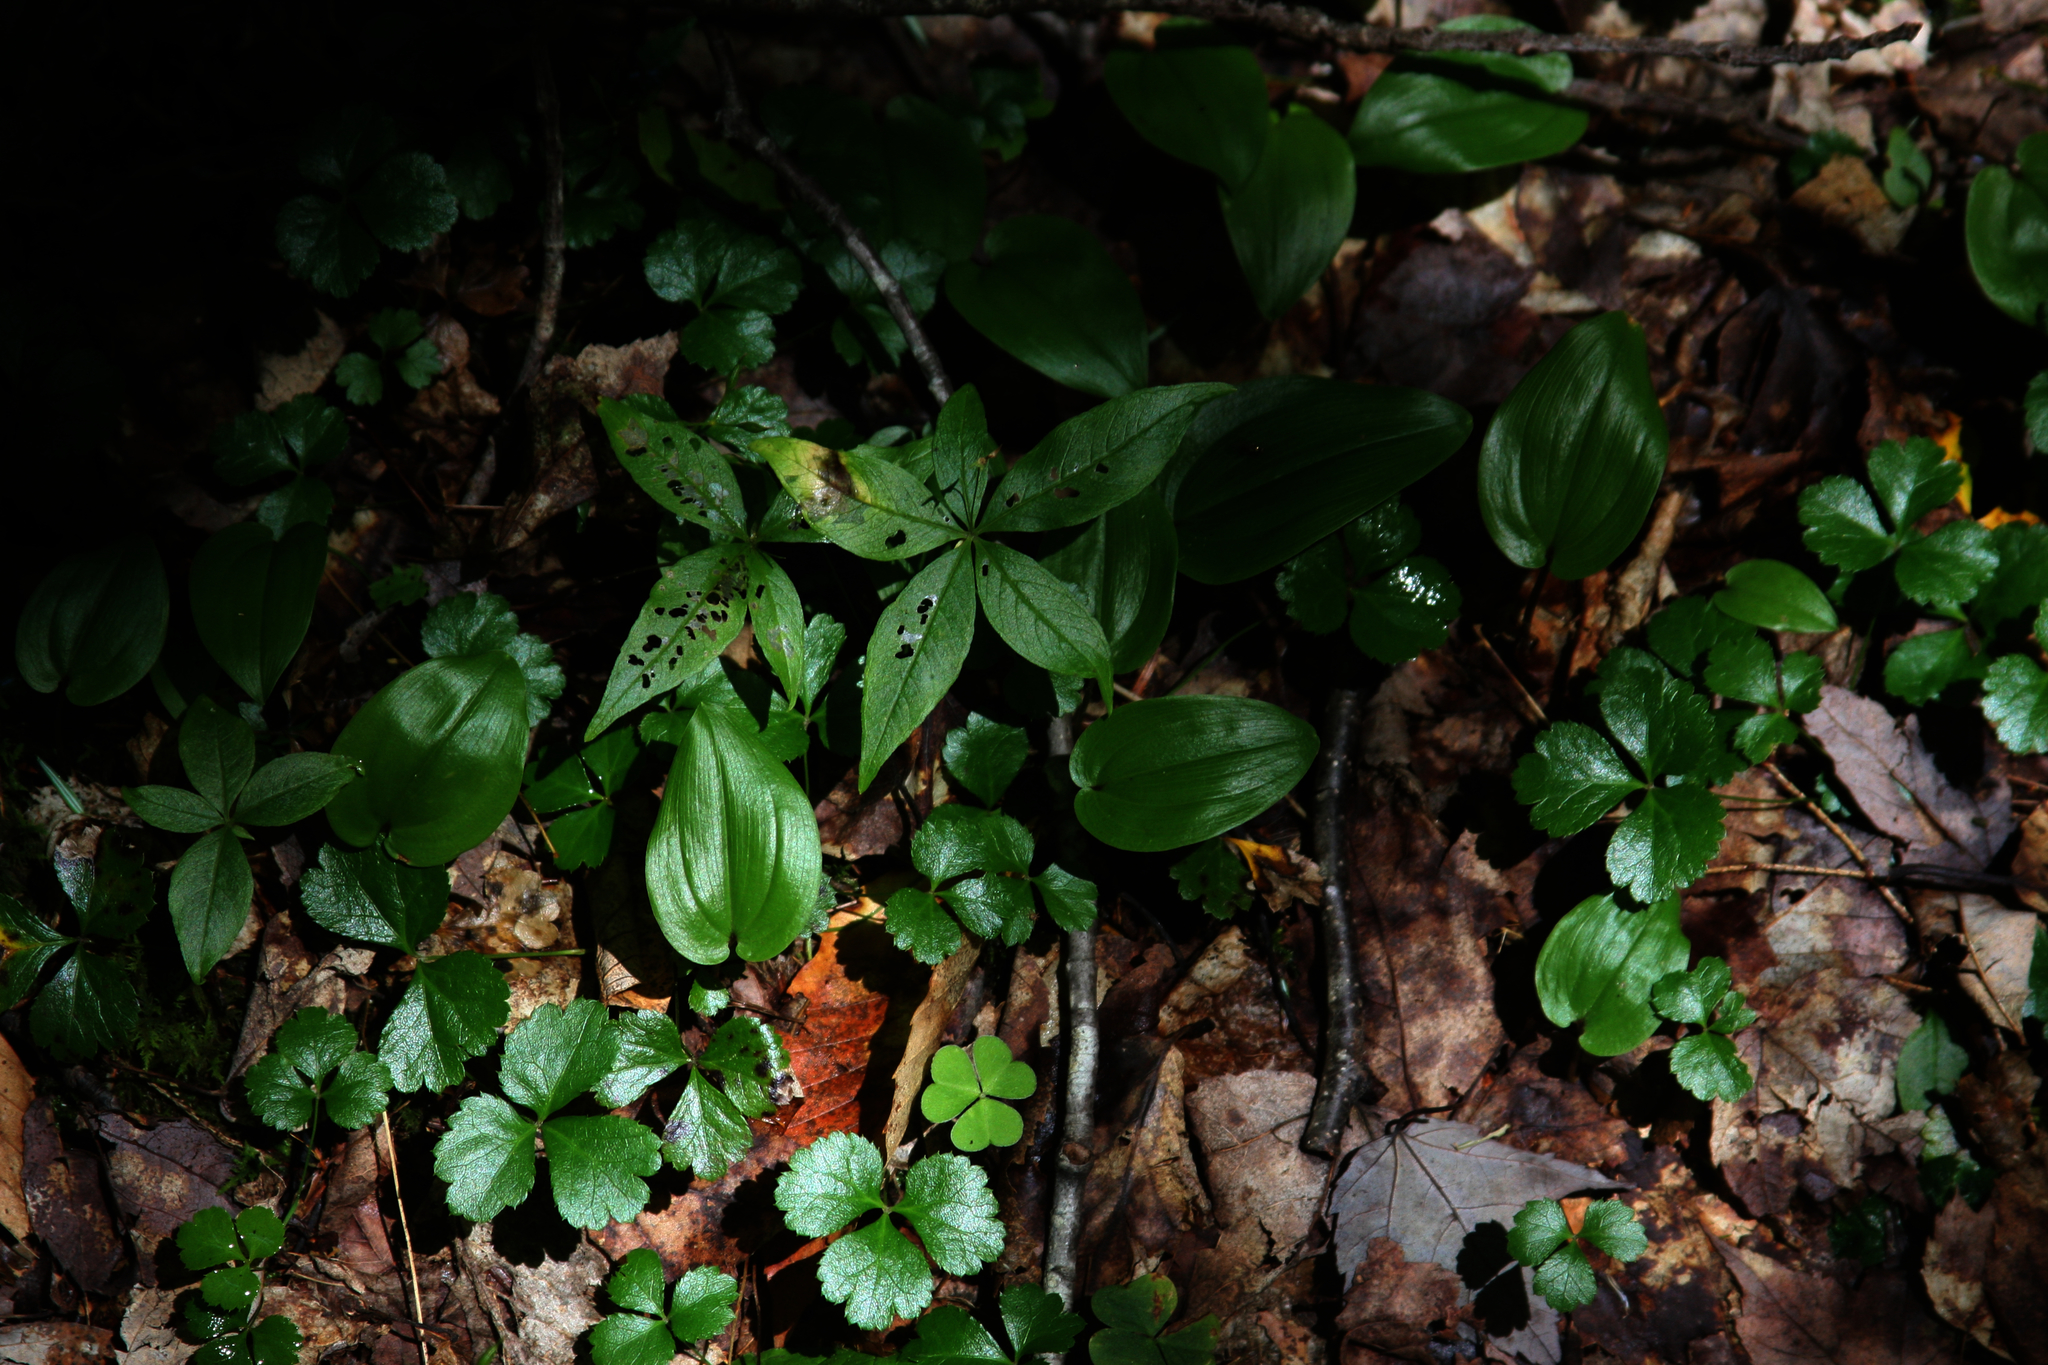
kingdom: Plantae
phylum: Tracheophyta
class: Liliopsida
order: Asparagales
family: Asparagaceae
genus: Maianthemum
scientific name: Maianthemum canadense
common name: False lily-of-the-valley
